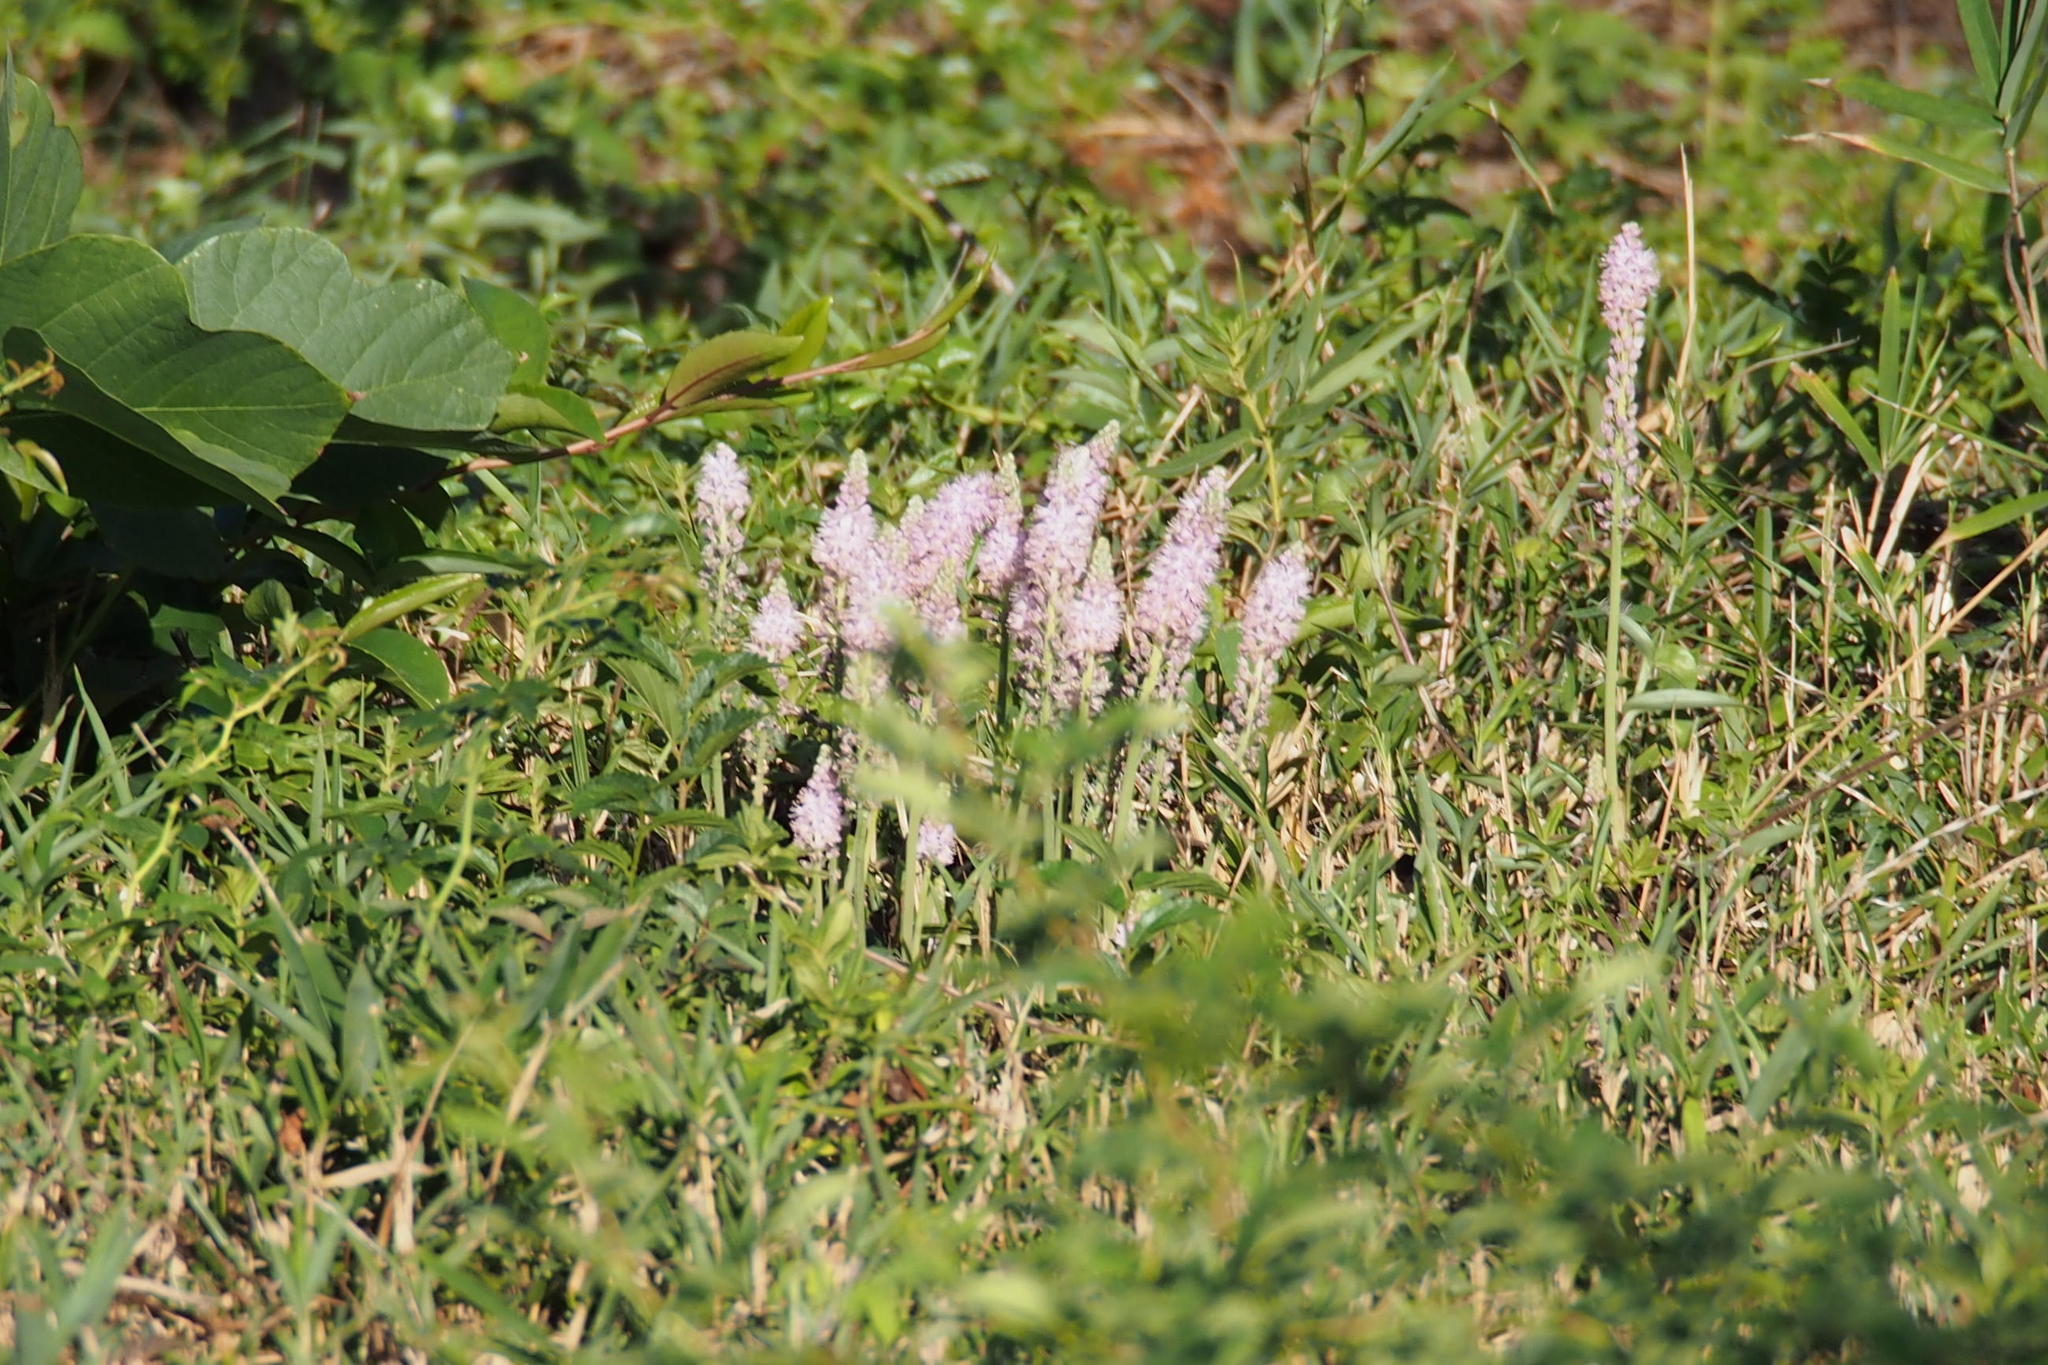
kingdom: Plantae
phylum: Tracheophyta
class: Liliopsida
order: Asparagales
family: Asparagaceae
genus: Barnardia
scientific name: Barnardia japonica
